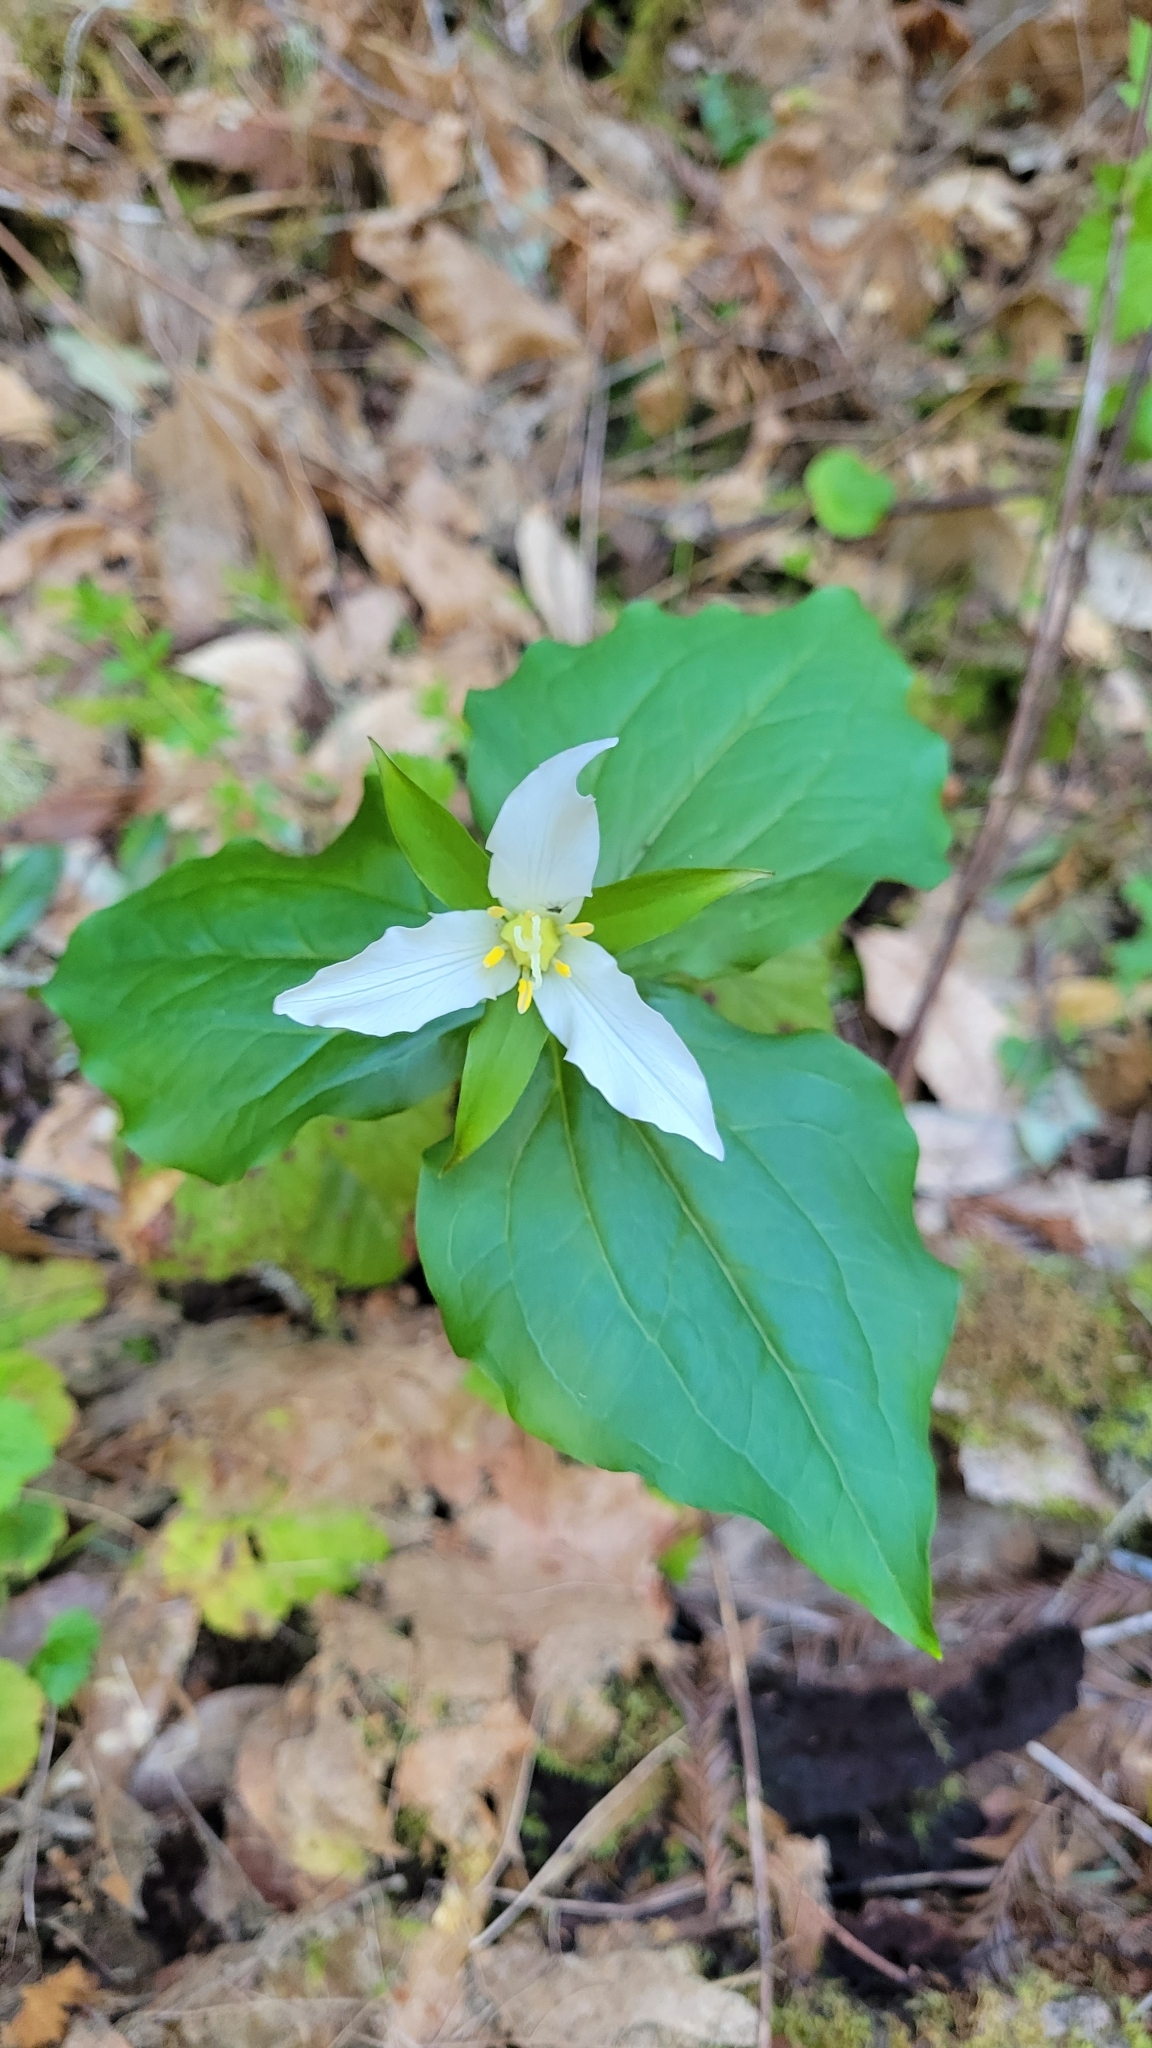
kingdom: Plantae
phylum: Tracheophyta
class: Liliopsida
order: Liliales
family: Melanthiaceae
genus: Trillium
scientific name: Trillium ovatum
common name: Pacific trillium
